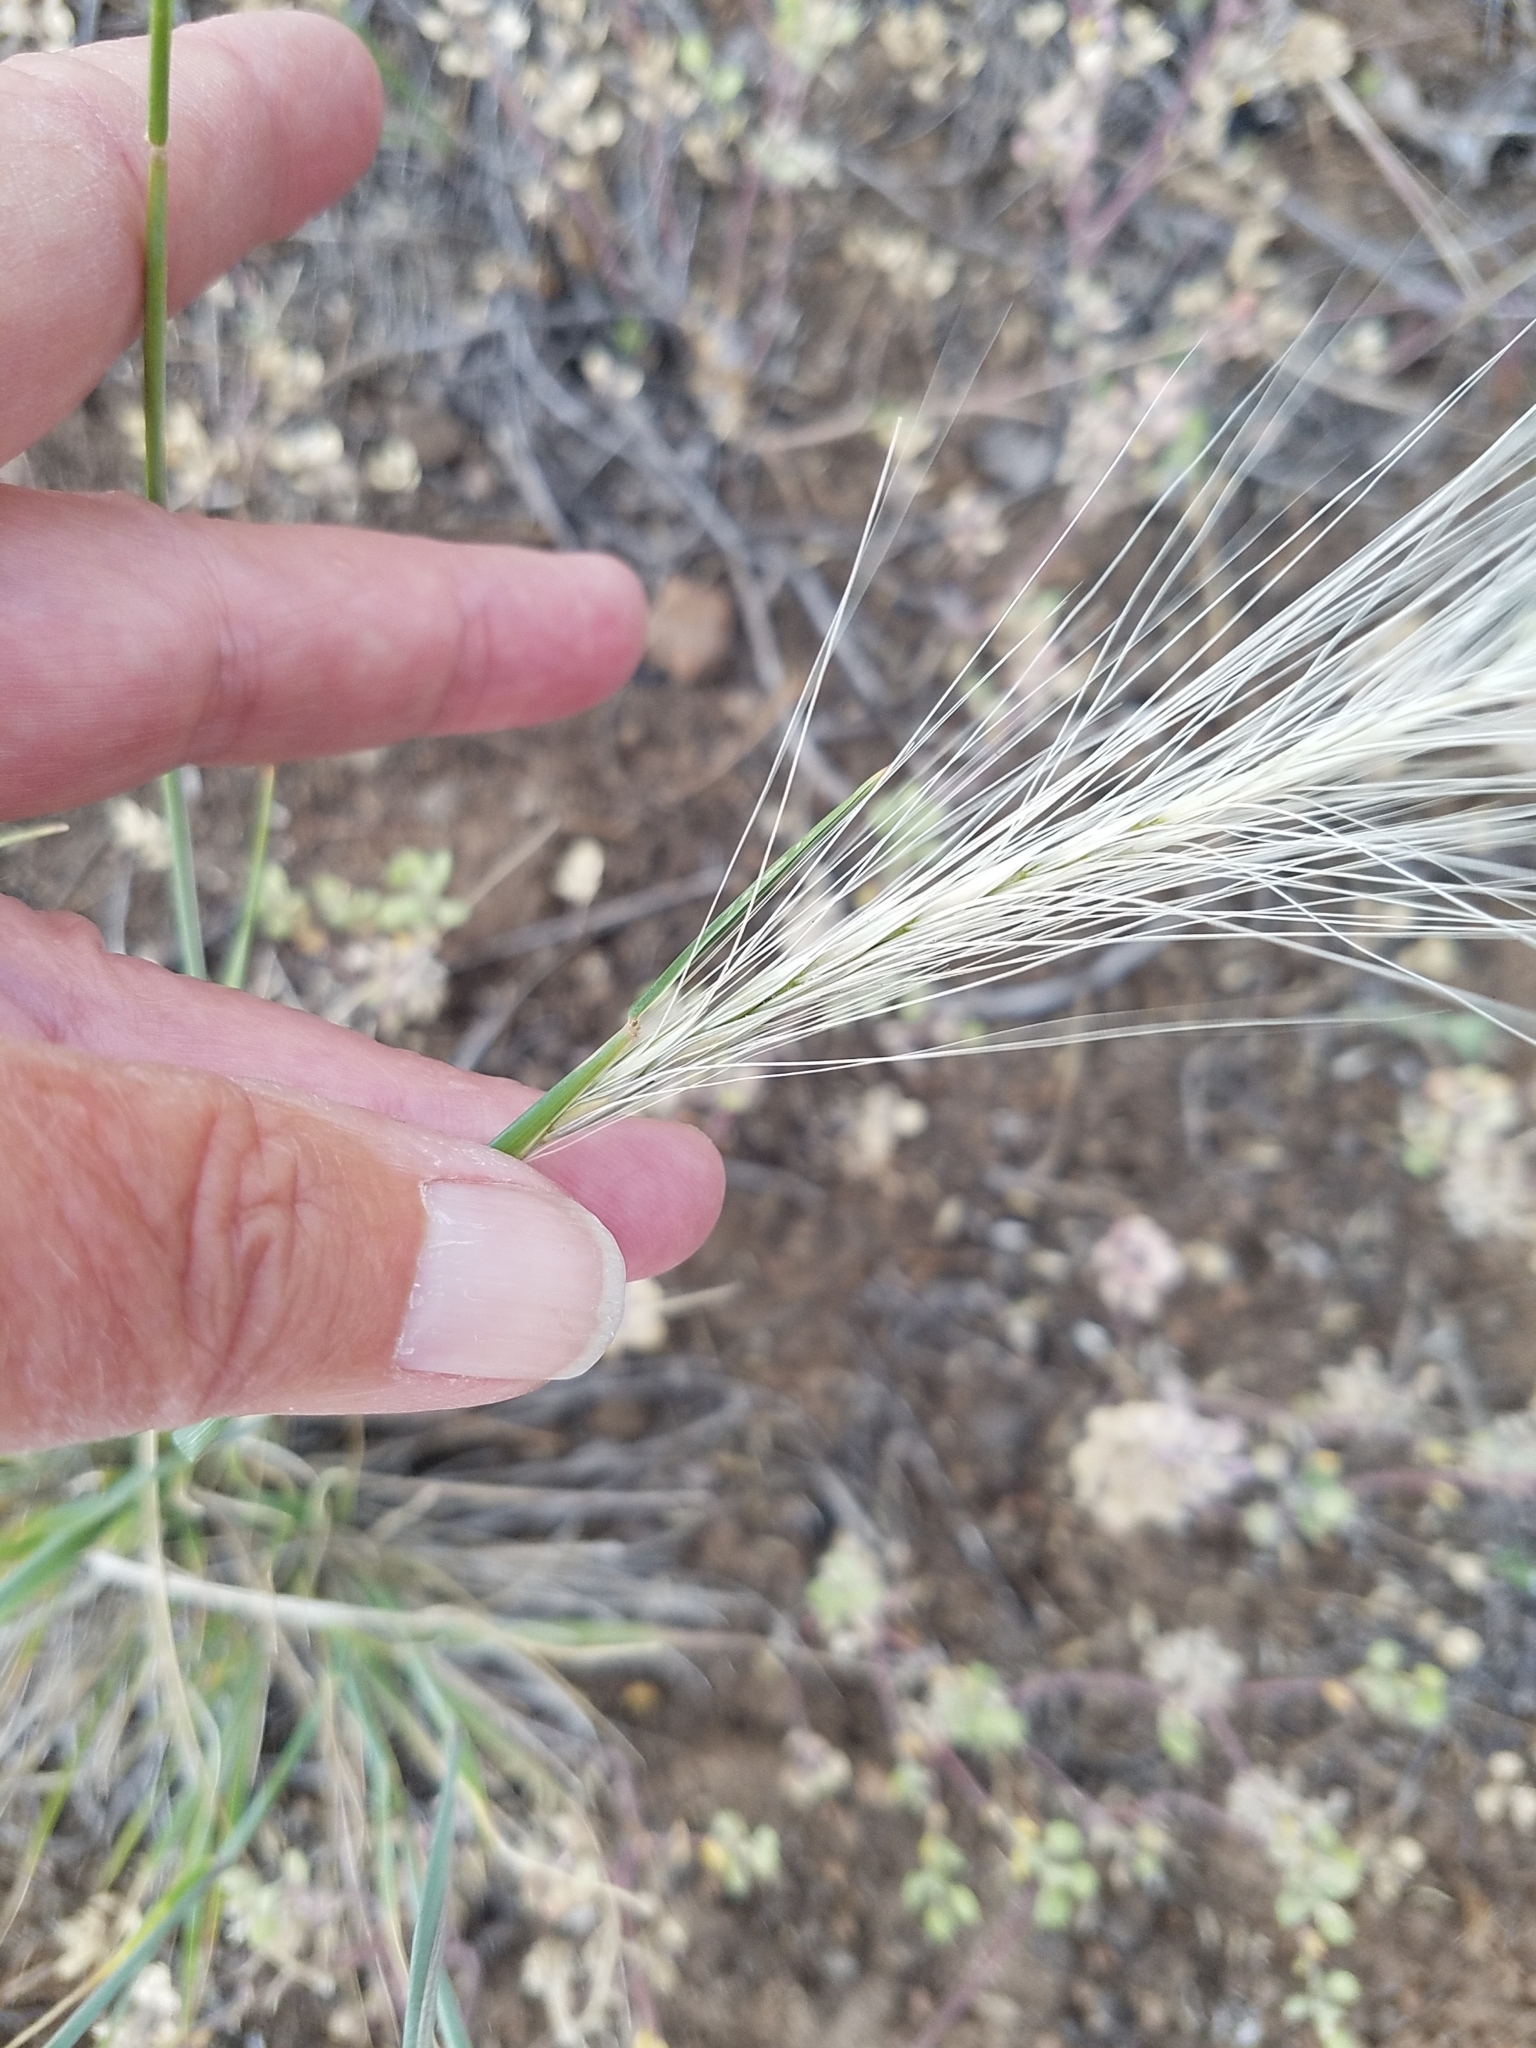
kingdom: Plantae
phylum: Tracheophyta
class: Liliopsida
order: Poales
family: Poaceae
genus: Elymus
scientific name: Elymus elymoides
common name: Bottlebrush squirreltail
